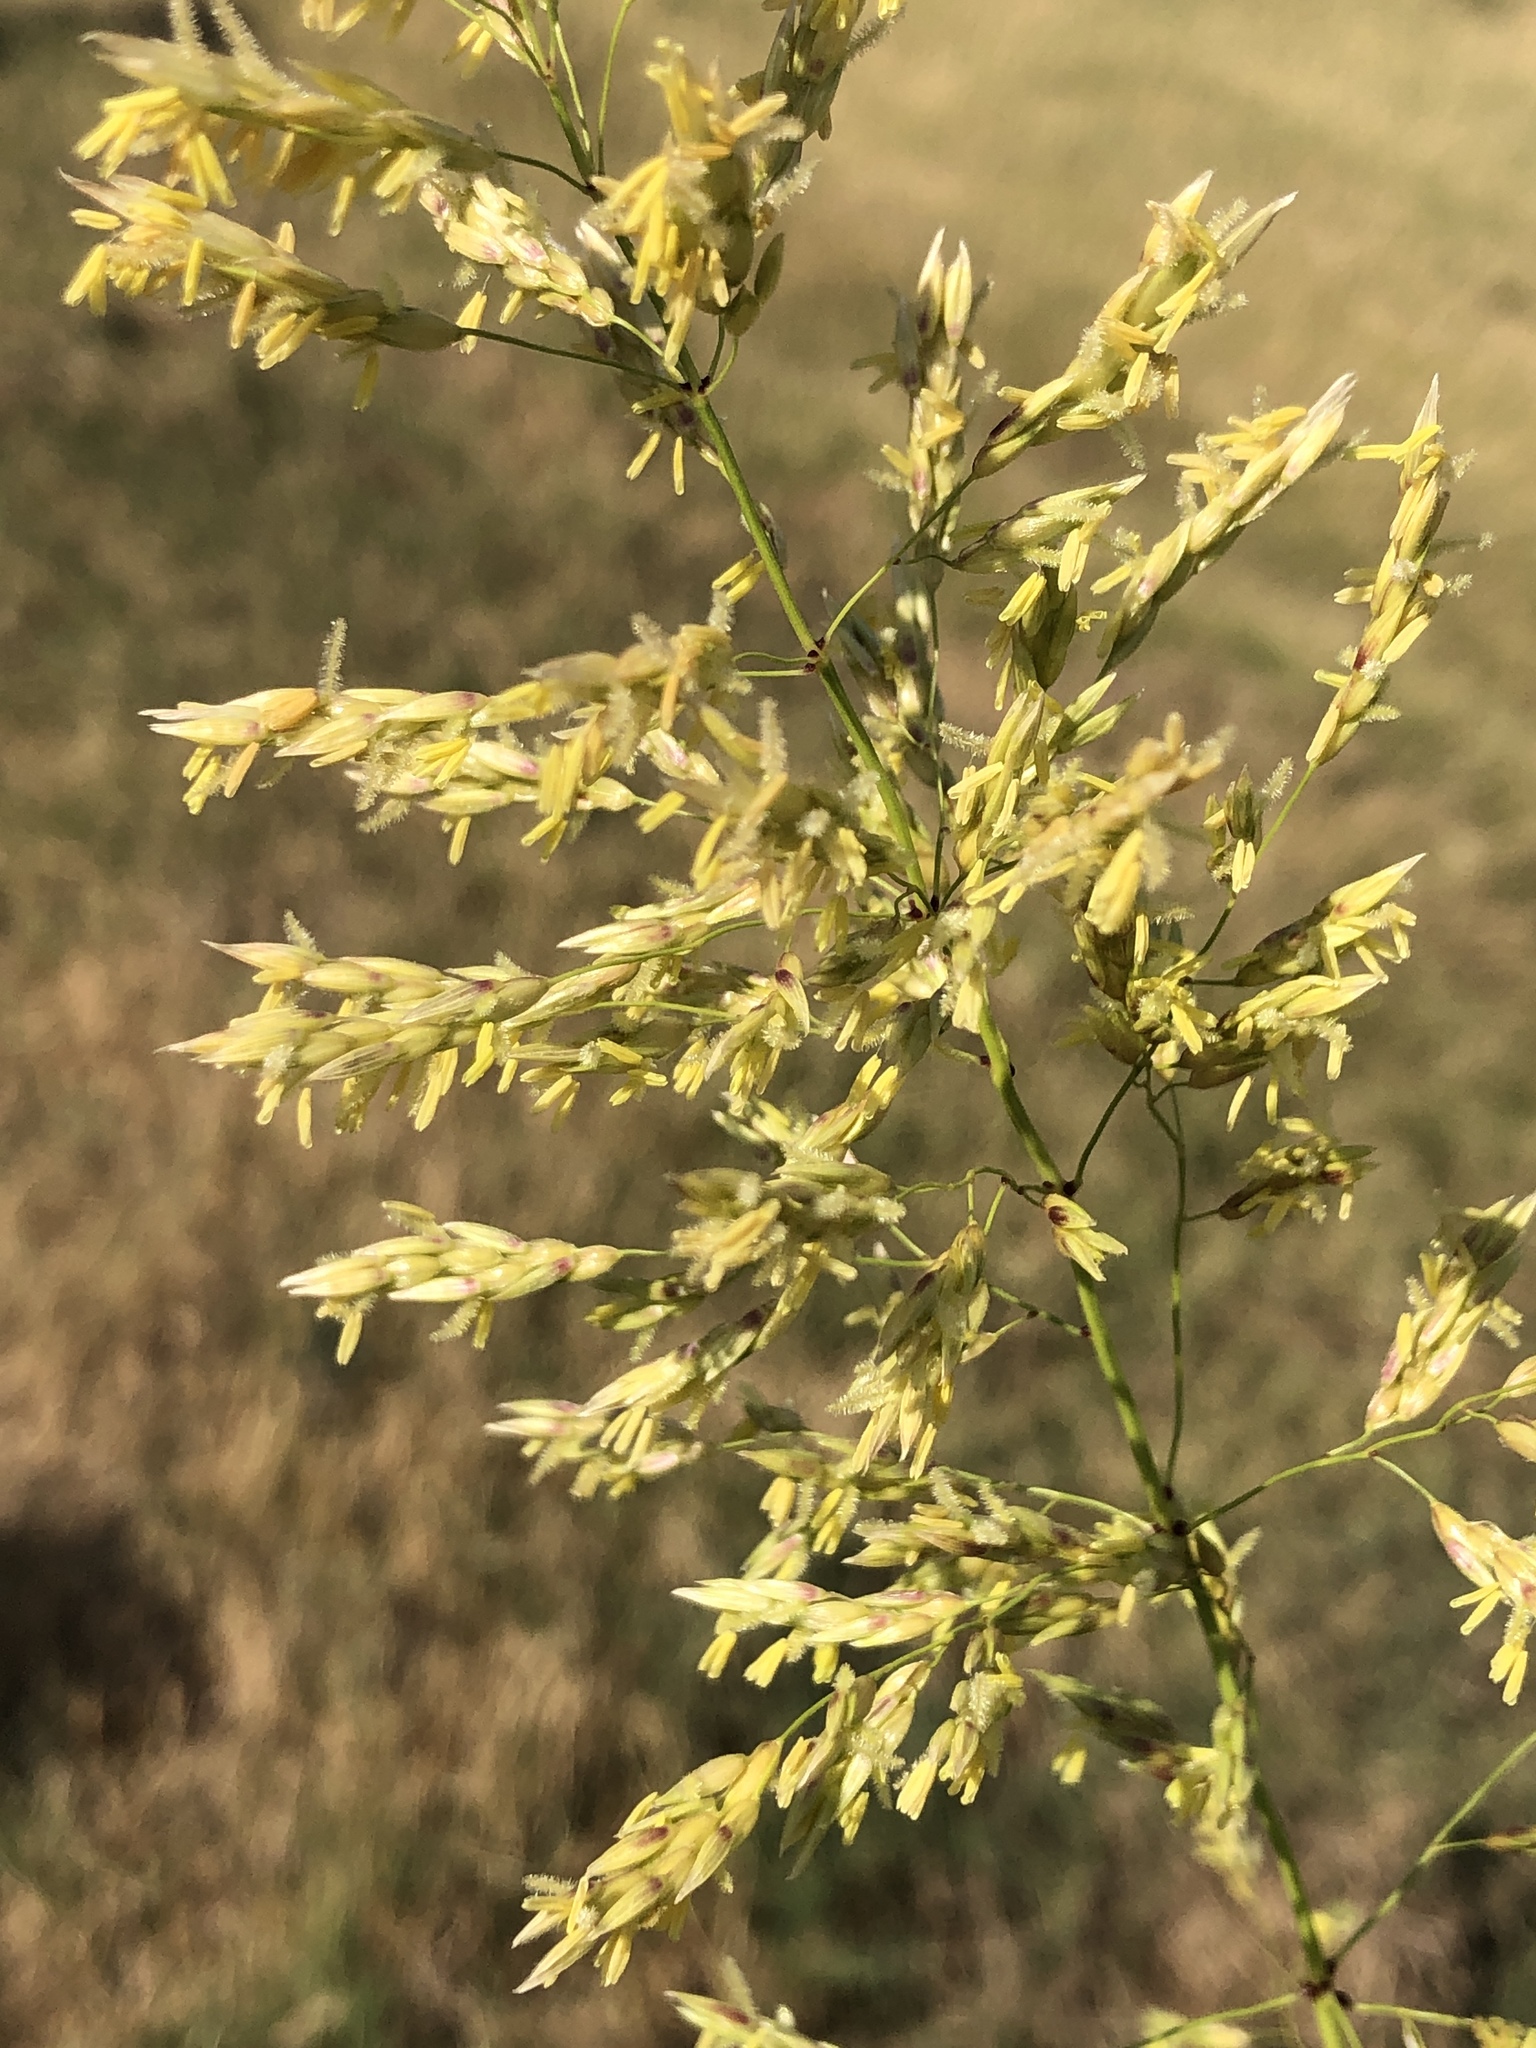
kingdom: Plantae
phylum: Tracheophyta
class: Liliopsida
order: Poales
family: Poaceae
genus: Sorghum
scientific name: Sorghum halepense
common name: Johnson-grass
